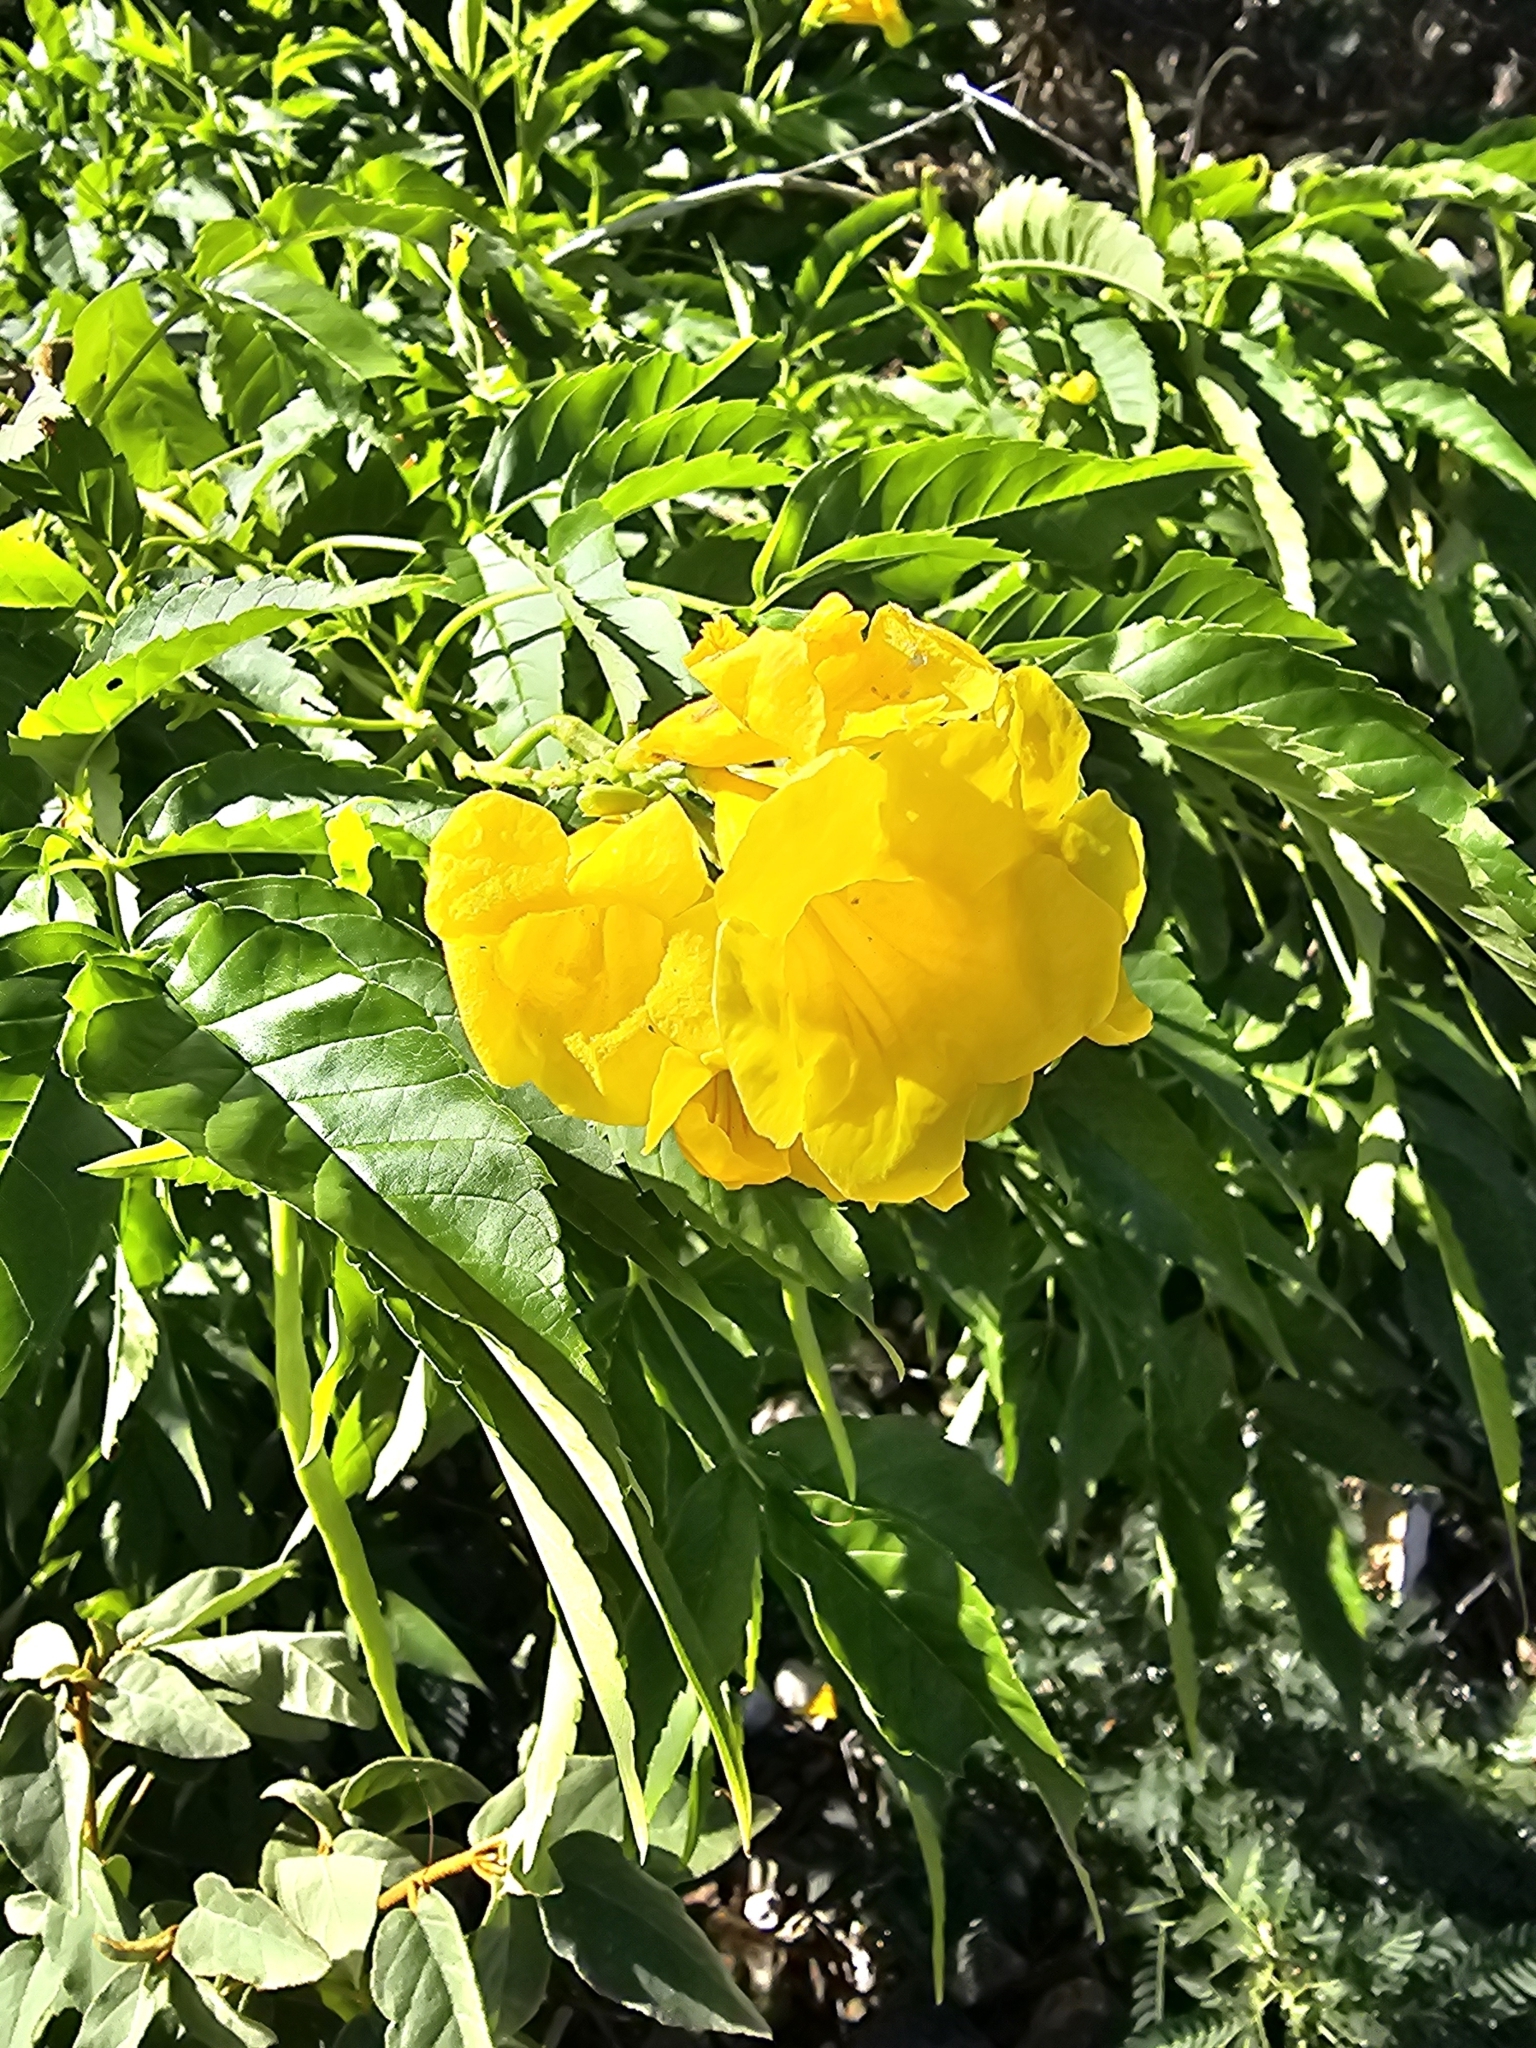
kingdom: Plantae
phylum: Tracheophyta
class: Magnoliopsida
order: Lamiales
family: Bignoniaceae
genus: Tecoma
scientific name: Tecoma stans
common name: Yellow trumpetbush
